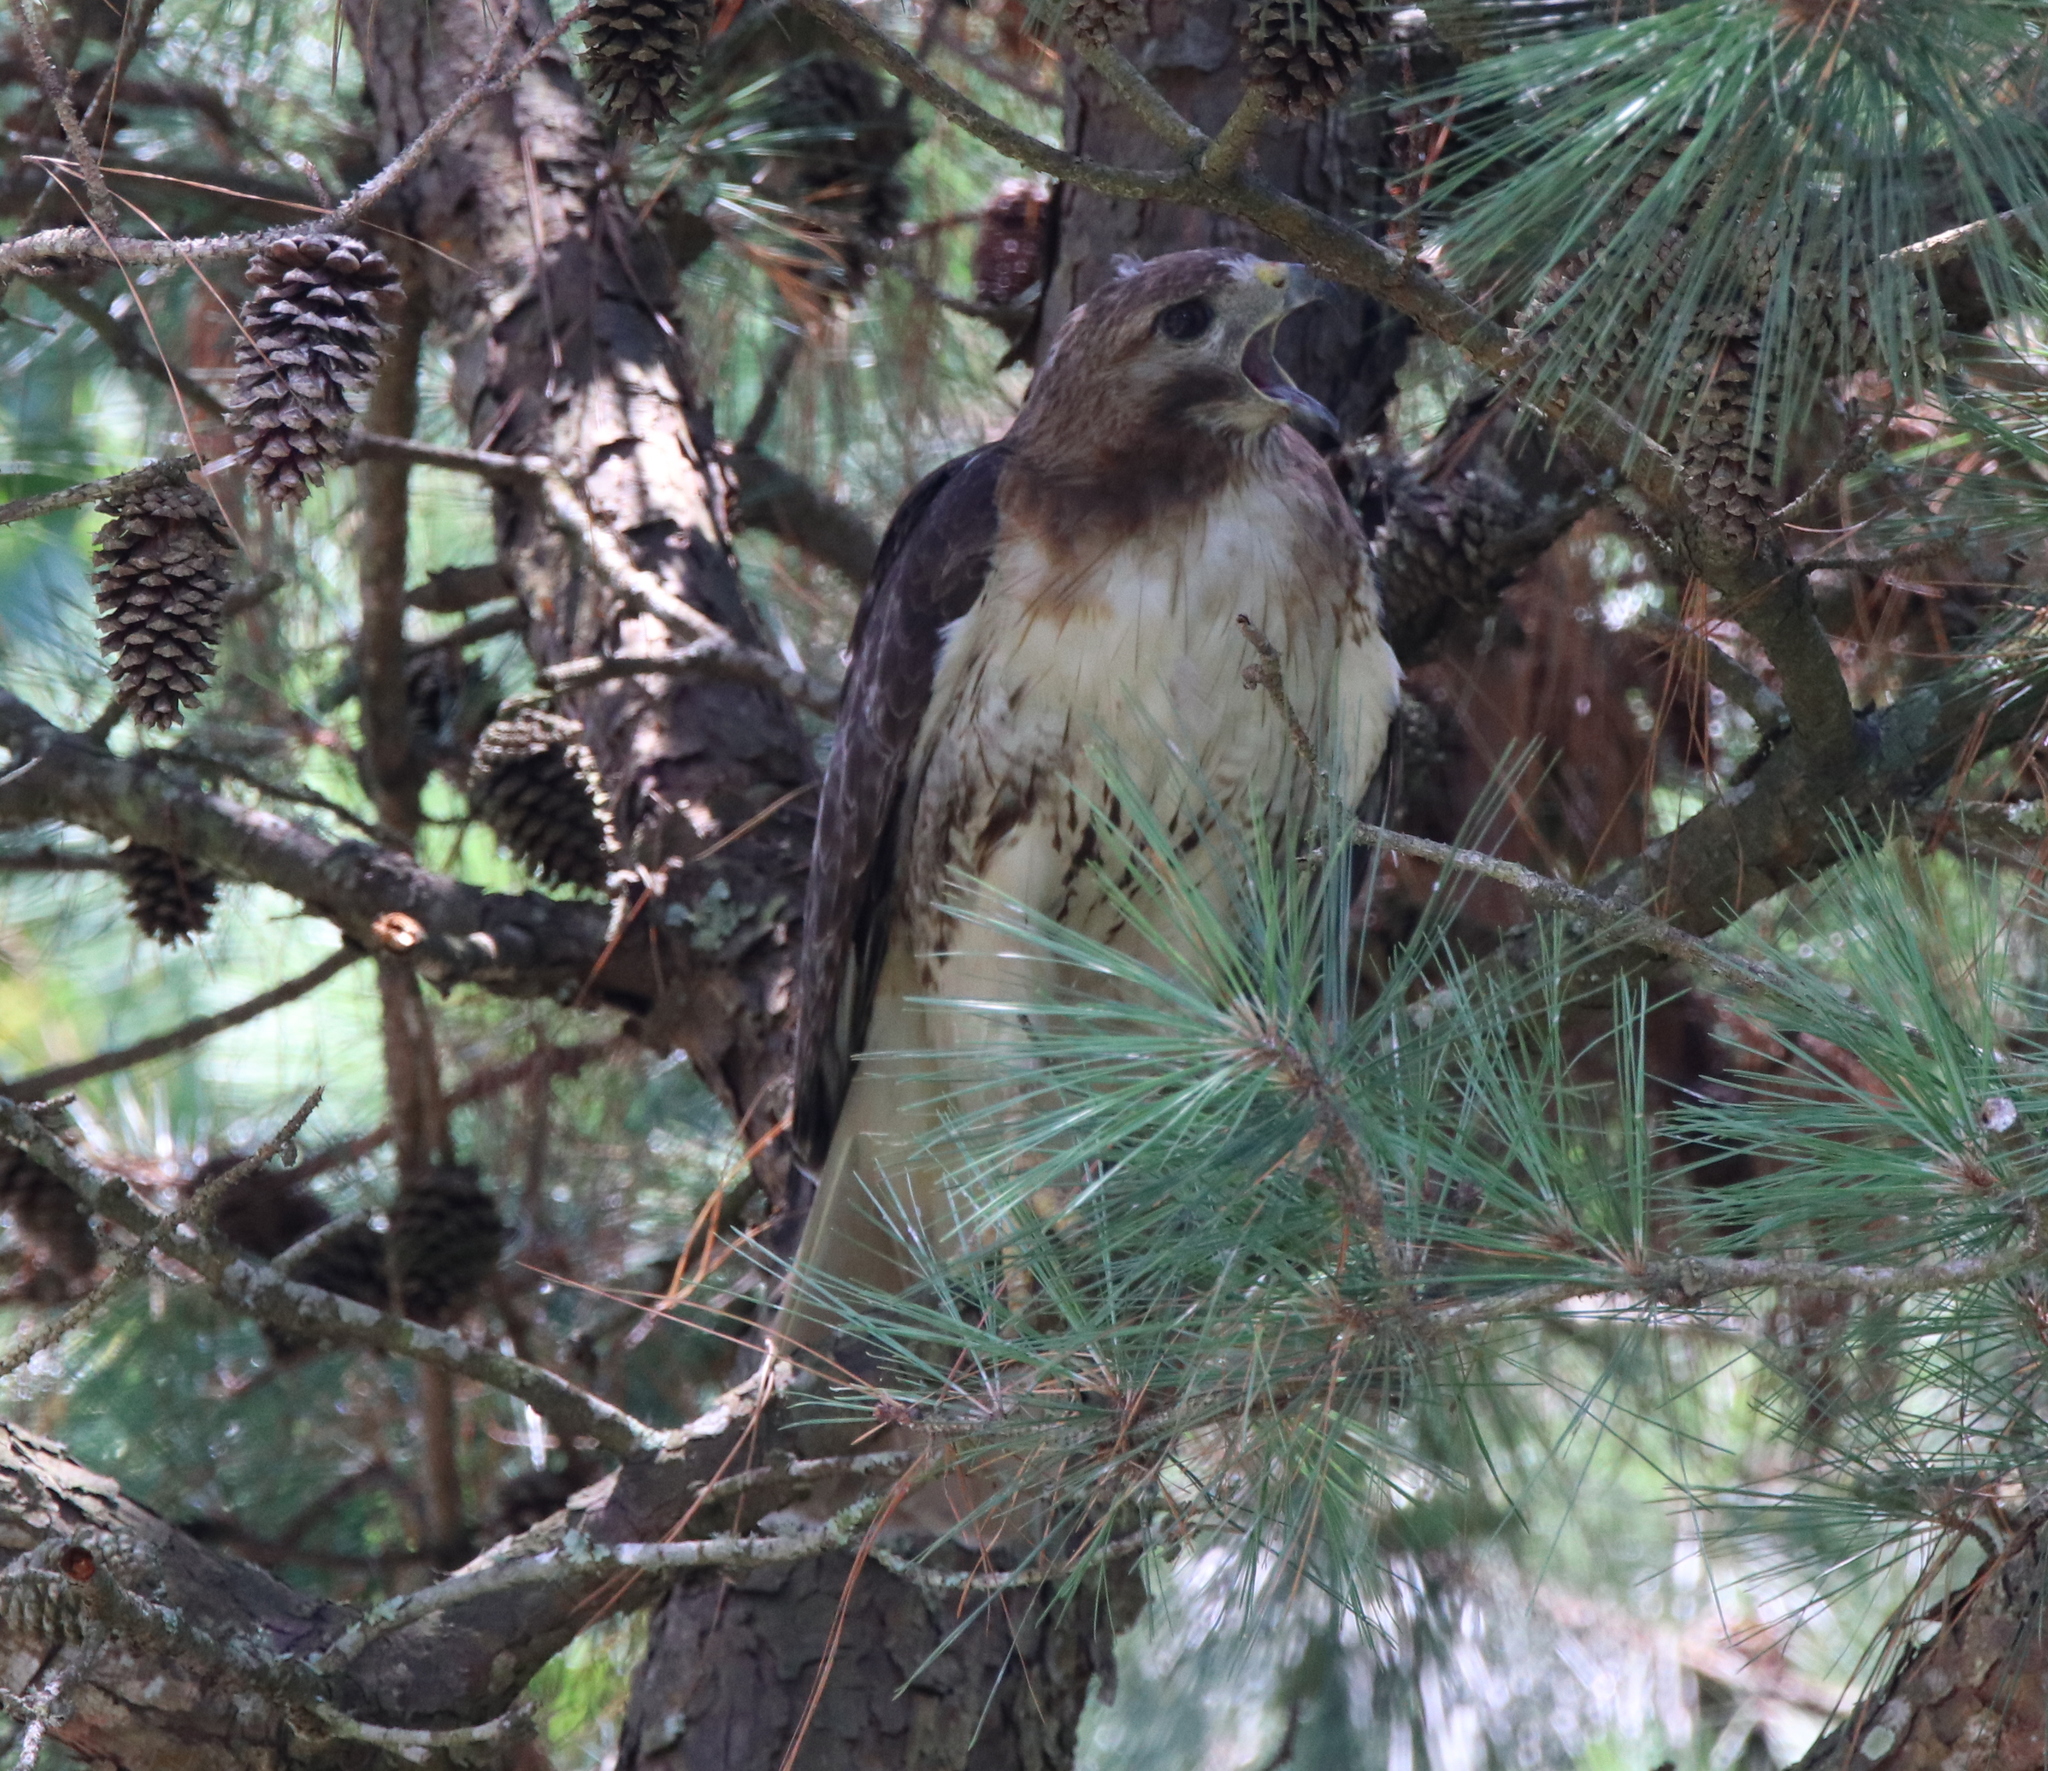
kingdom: Animalia
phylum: Chordata
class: Aves
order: Accipitriformes
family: Accipitridae
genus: Buteo
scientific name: Buteo jamaicensis
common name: Red-tailed hawk
